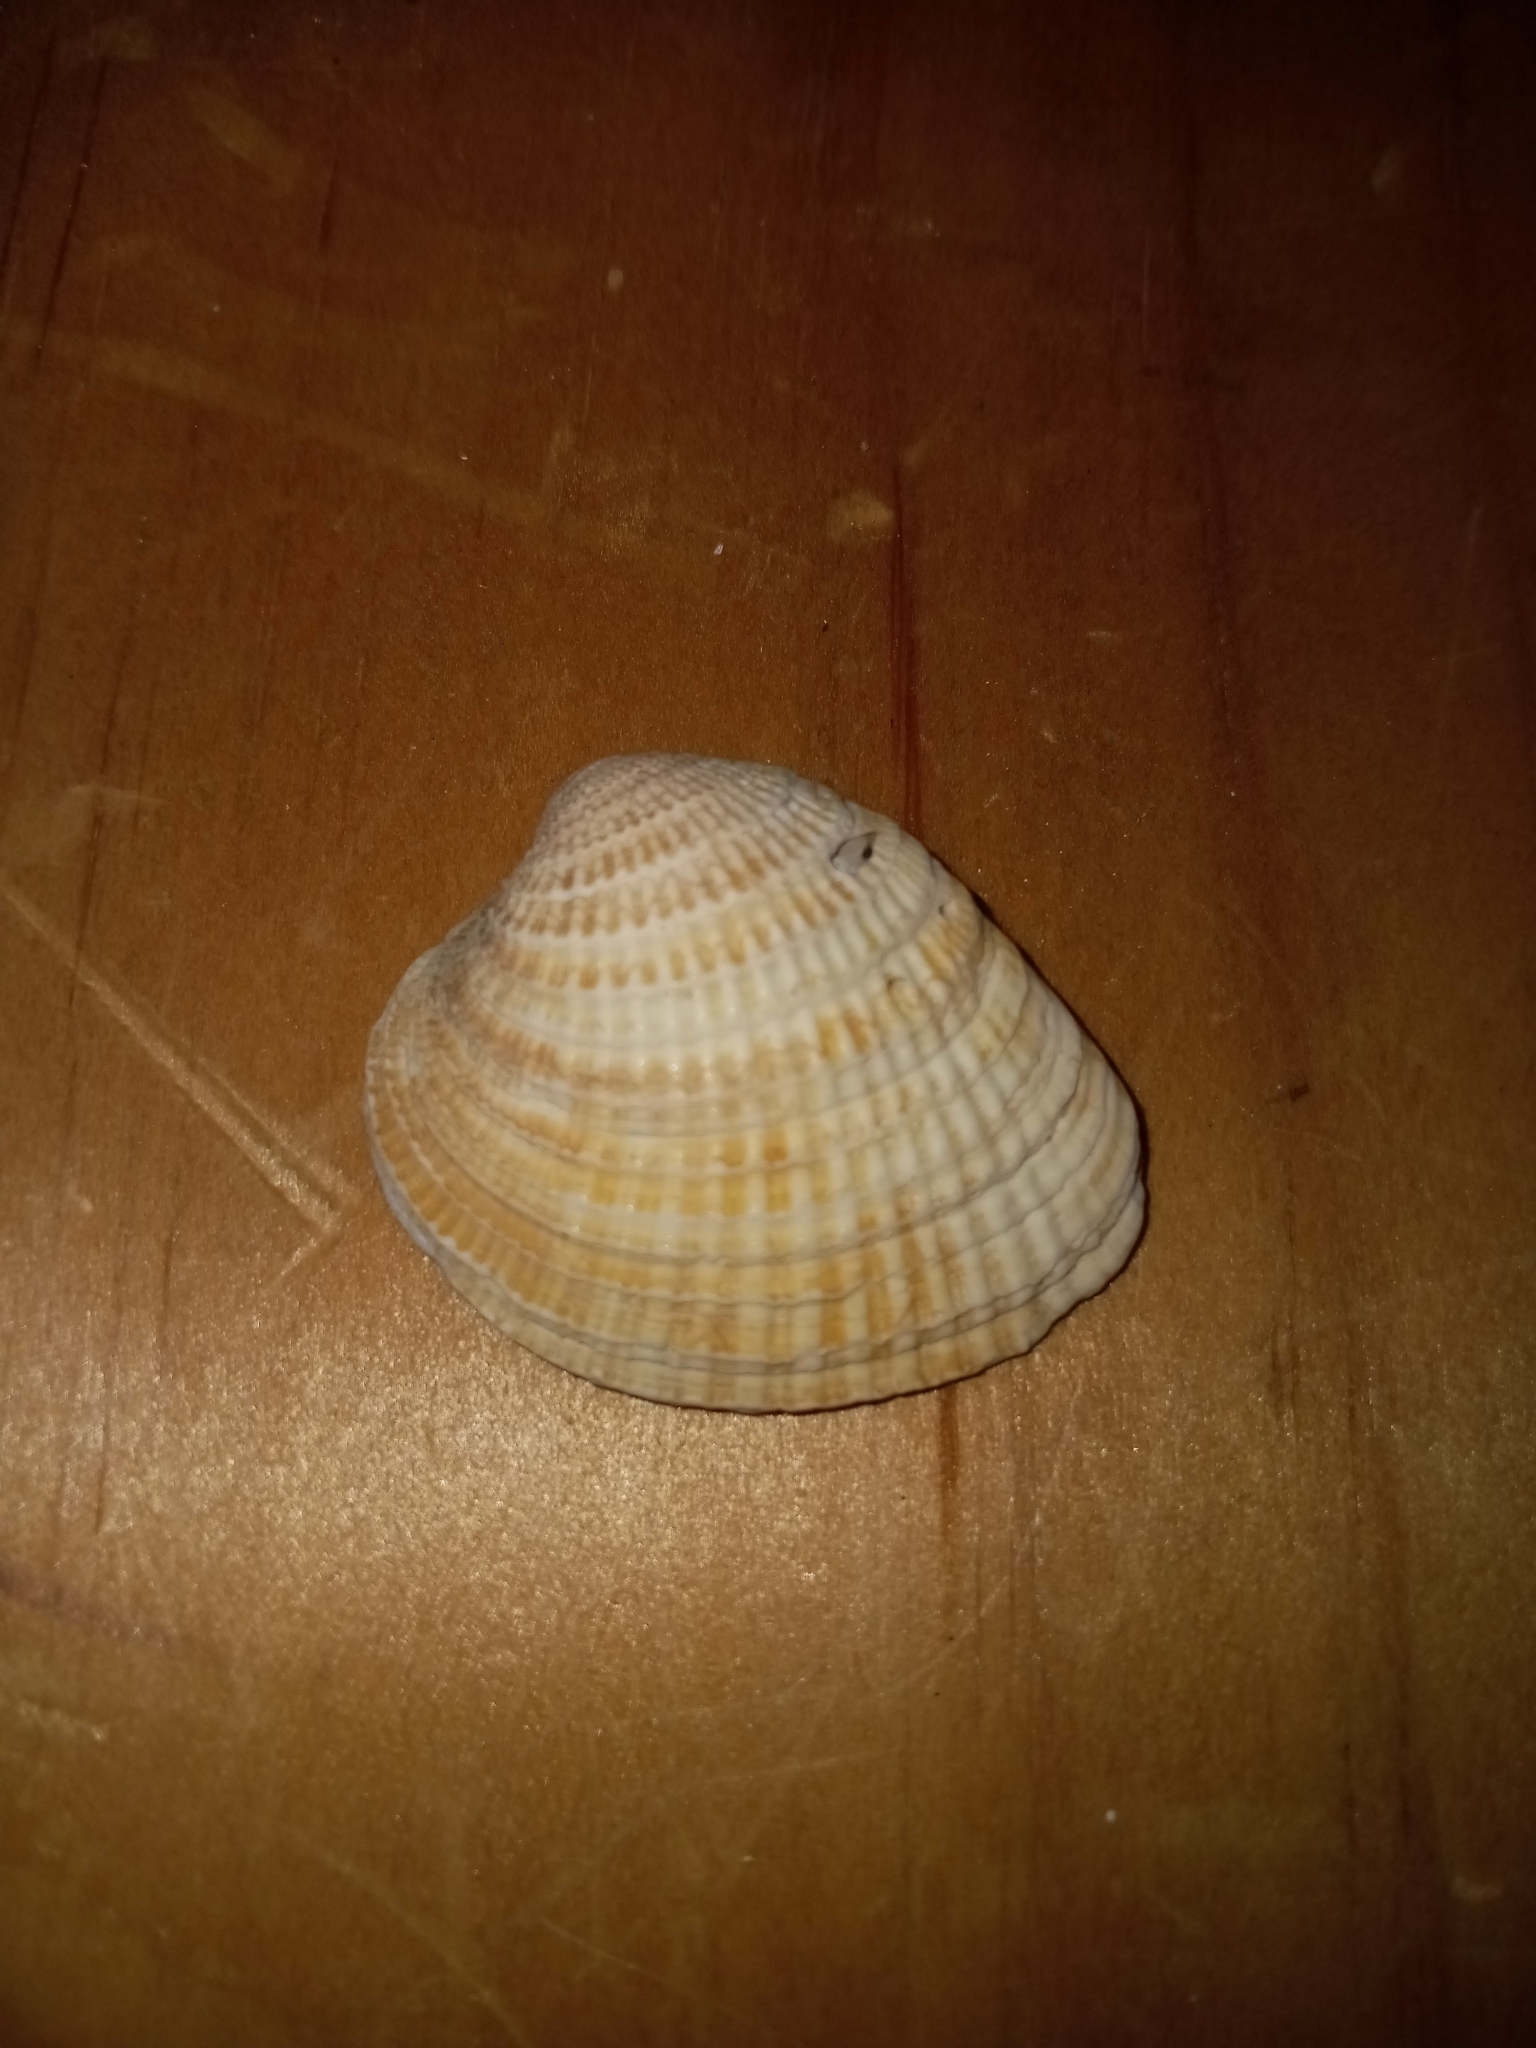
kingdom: Animalia
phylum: Mollusca
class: Bivalvia
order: Venerida
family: Veneridae
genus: Chione
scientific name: Chione elevata
